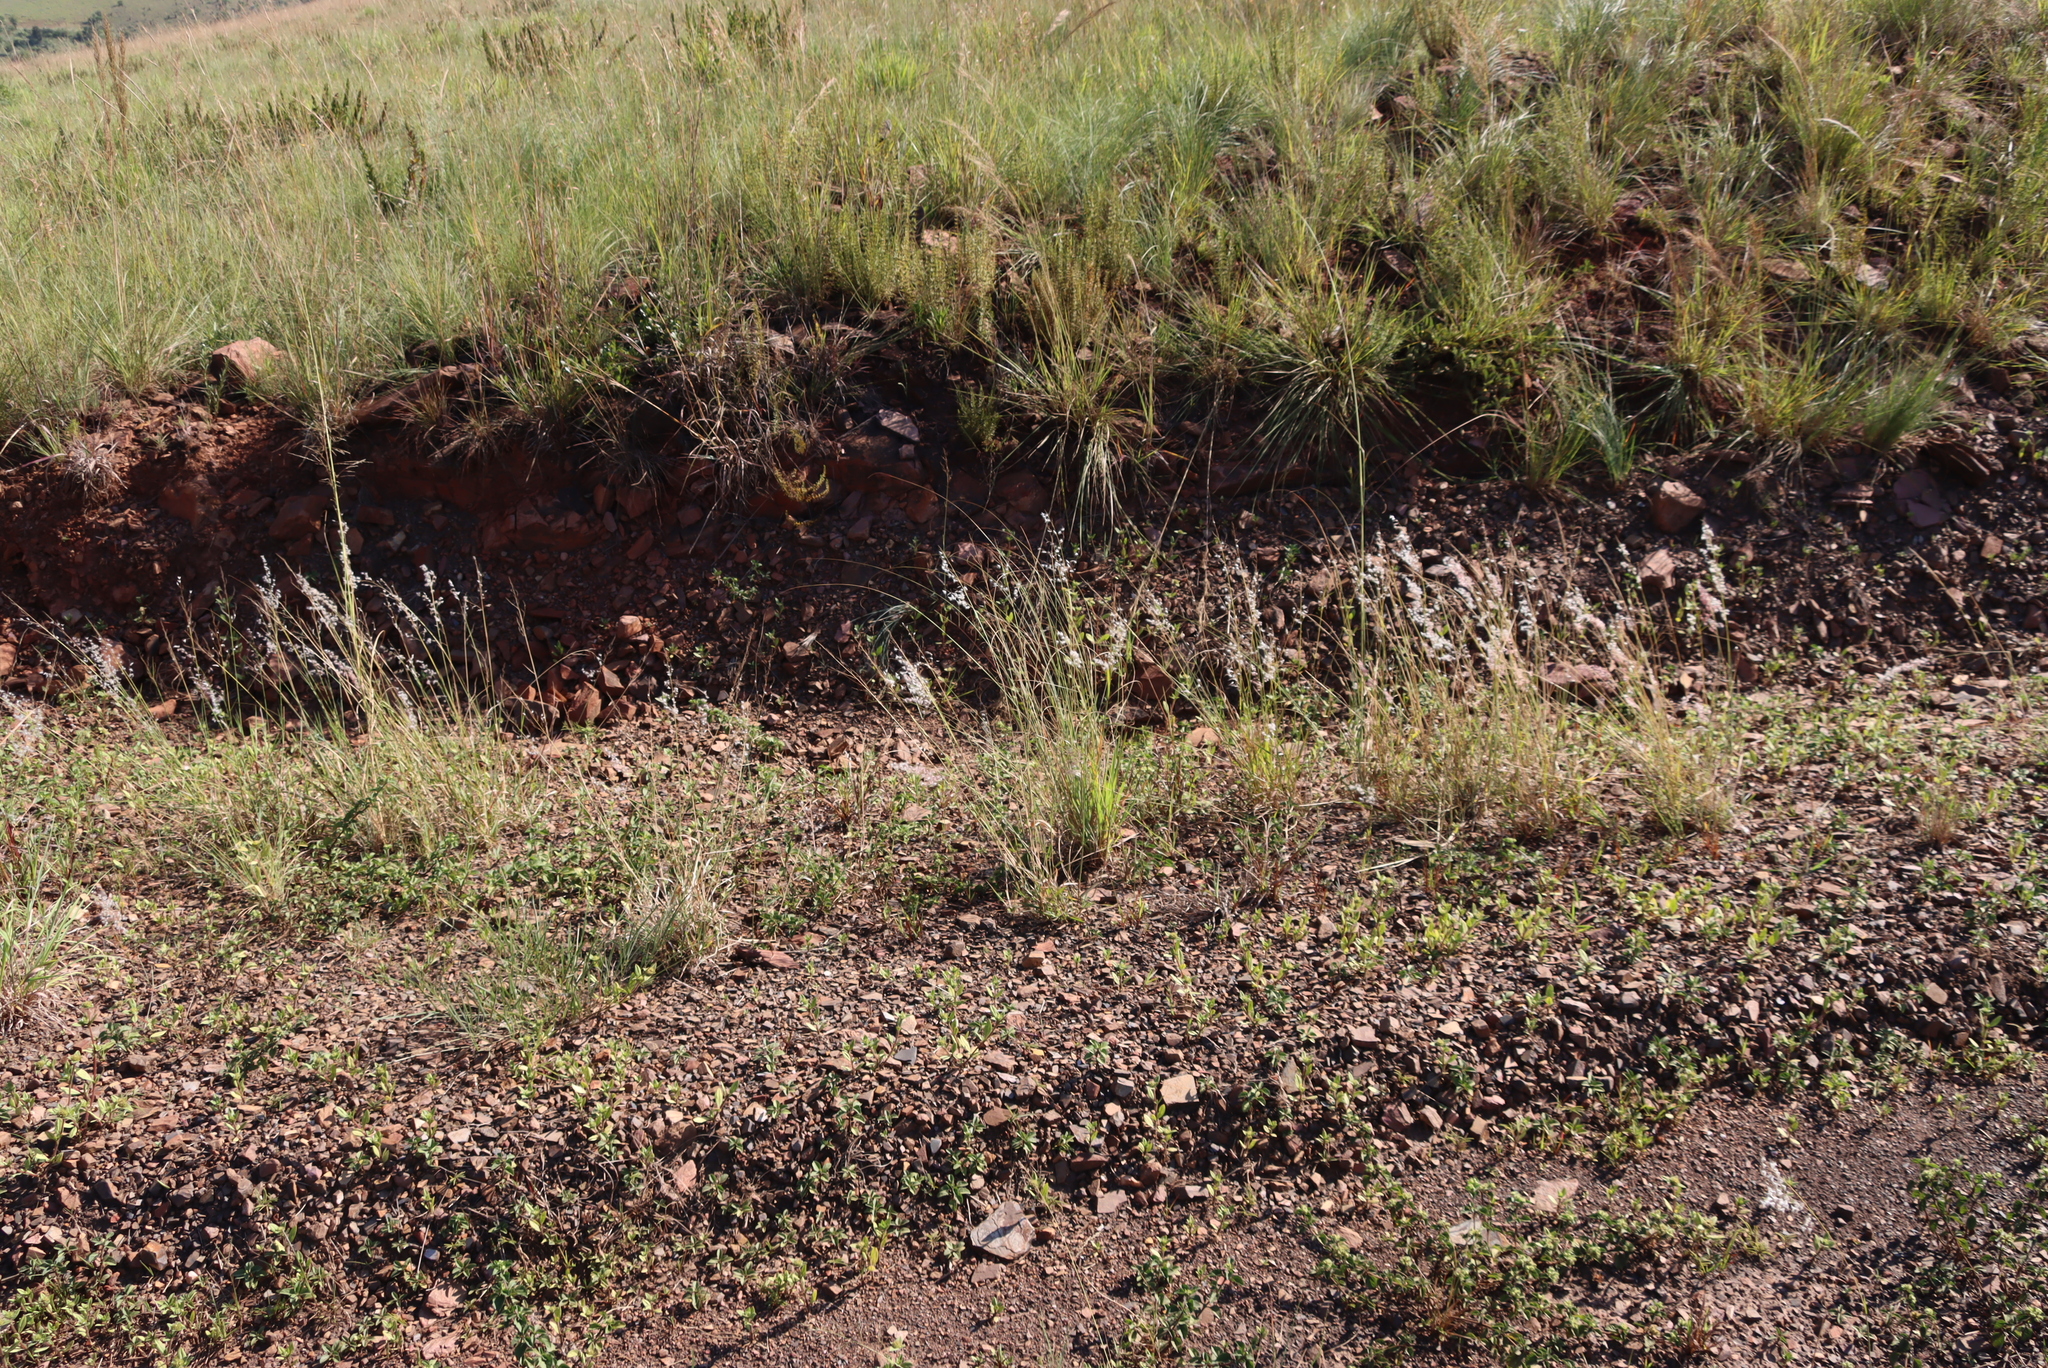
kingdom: Plantae
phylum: Tracheophyta
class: Liliopsida
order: Poales
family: Poaceae
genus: Melinis
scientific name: Melinis repens
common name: Rose natal grass
